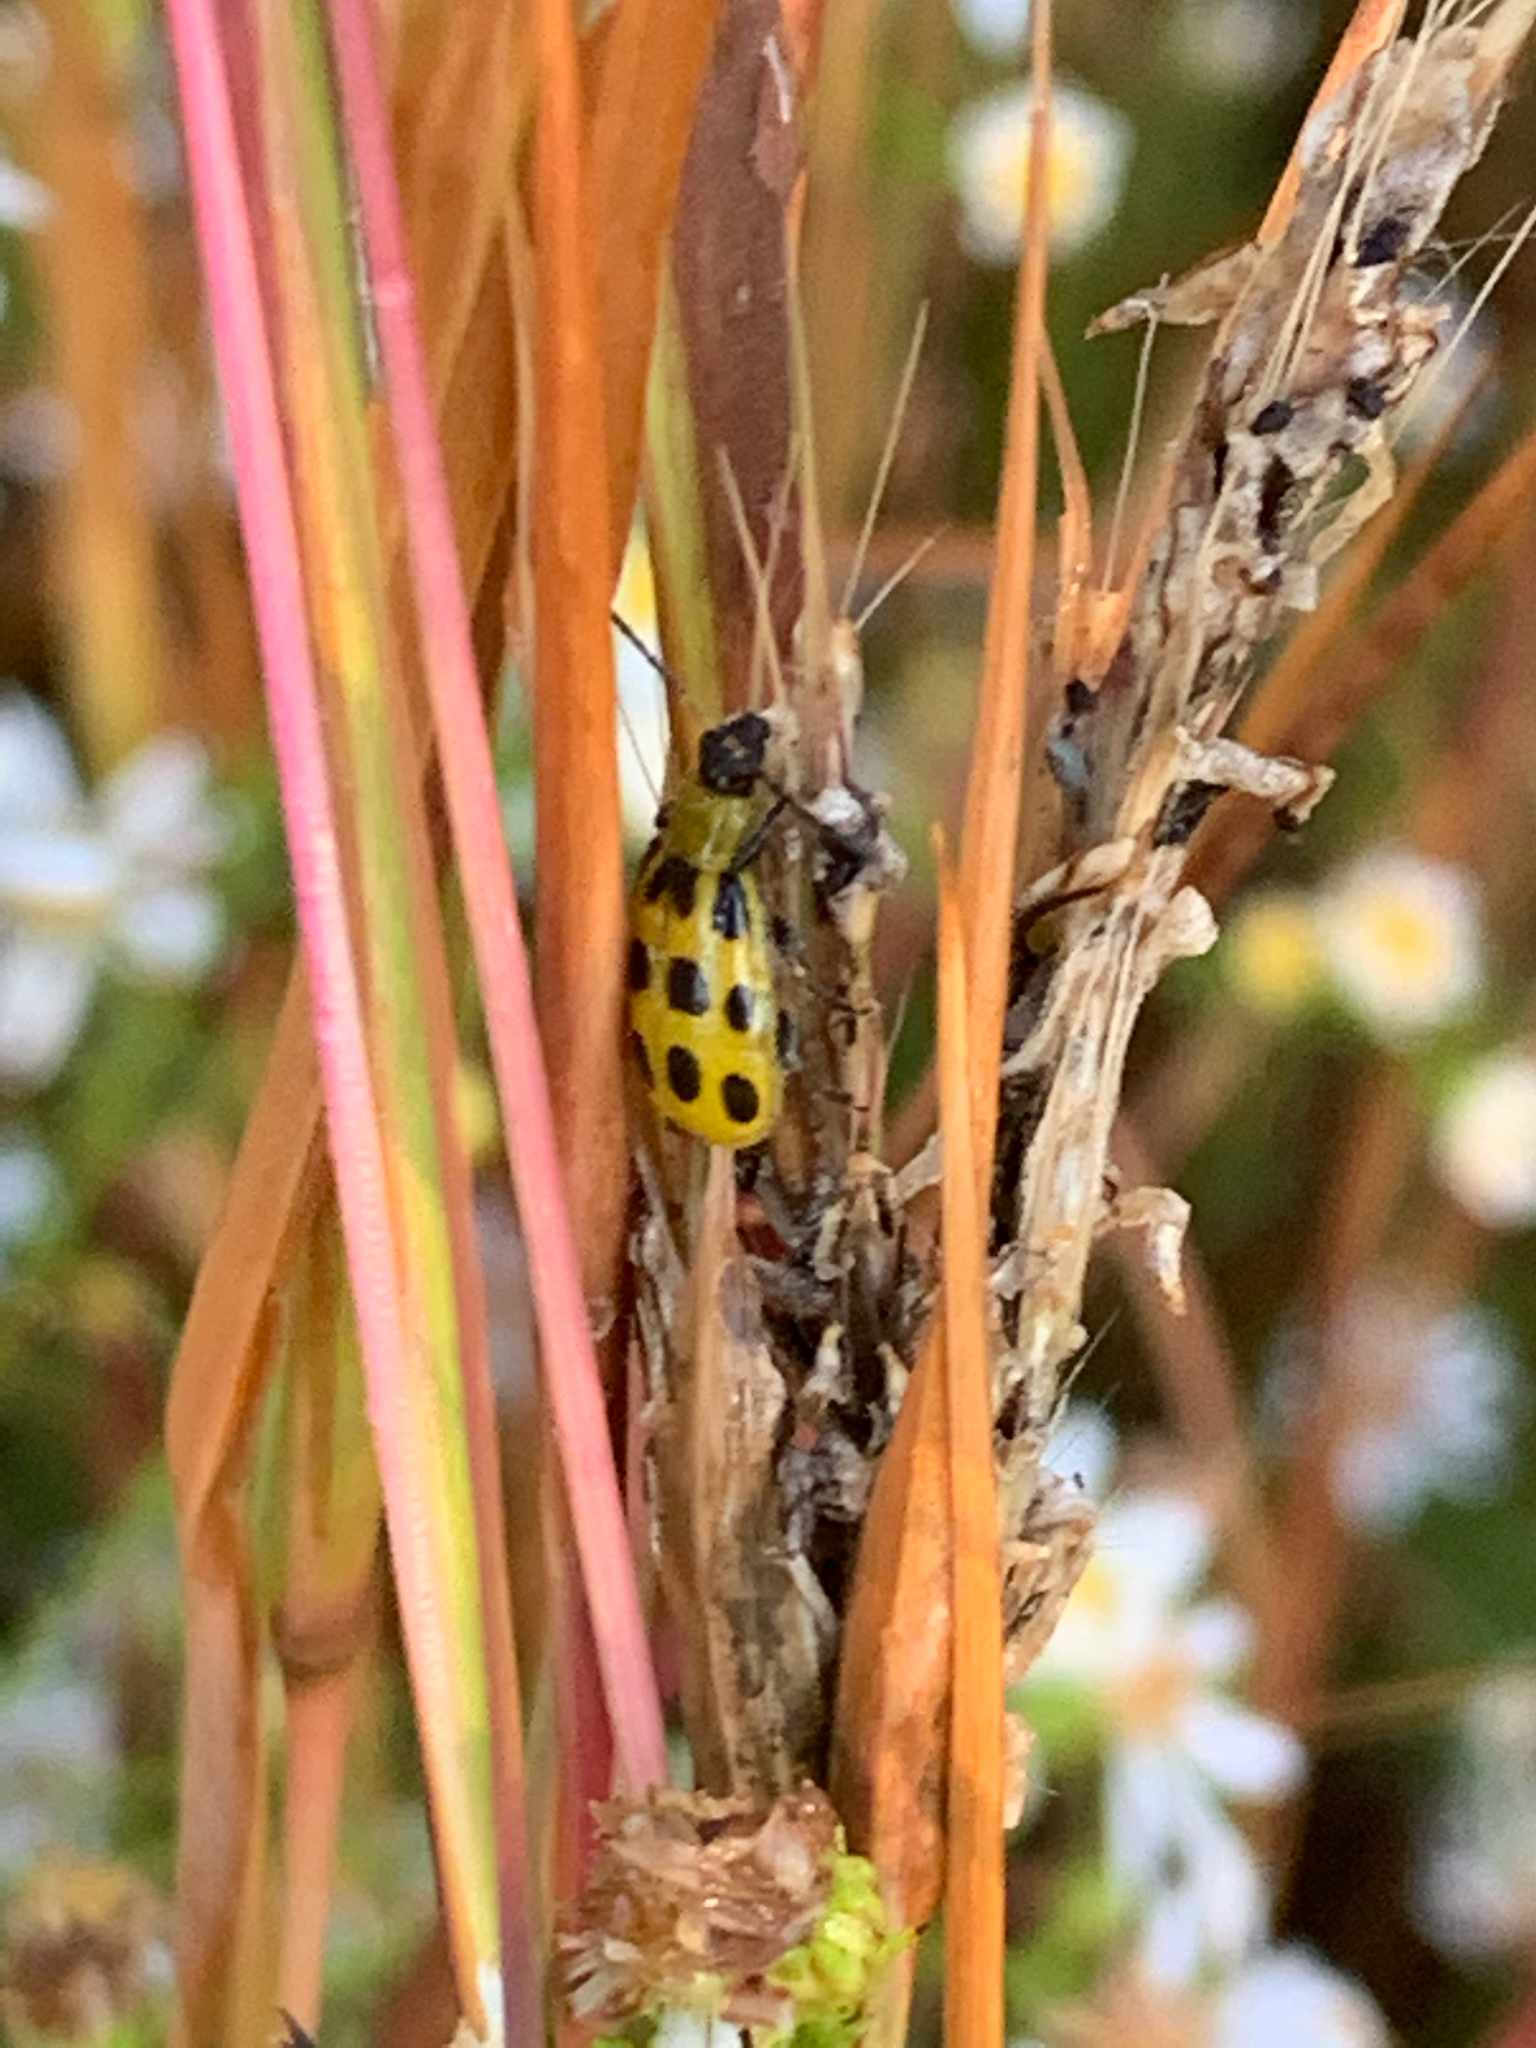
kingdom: Animalia
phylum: Arthropoda
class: Insecta
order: Coleoptera
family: Chrysomelidae
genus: Diabrotica
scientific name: Diabrotica undecimpunctata
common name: Spotted cucumber beetle
